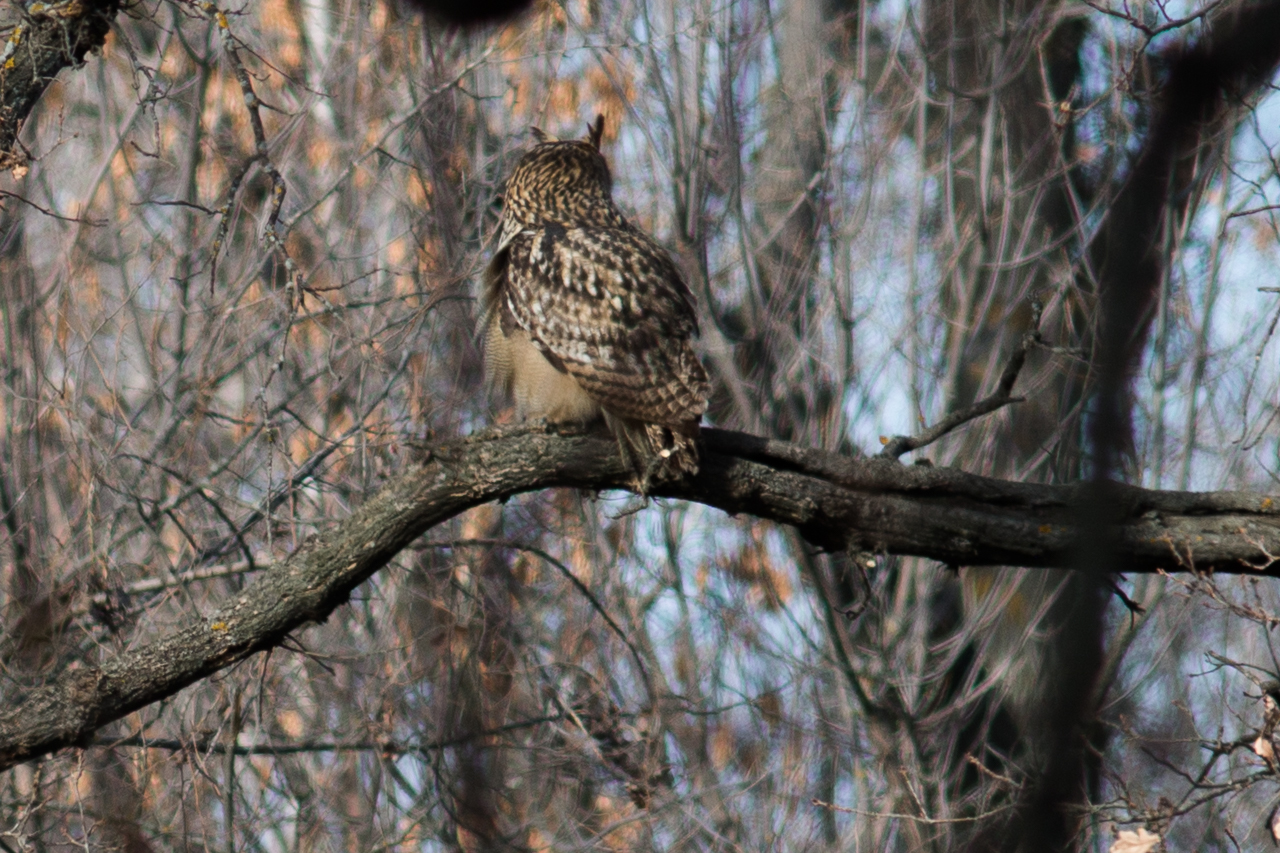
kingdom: Animalia
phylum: Chordata
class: Aves
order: Strigiformes
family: Strigidae
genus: Bubo
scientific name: Bubo bubo
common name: Eurasian eagle-owl
